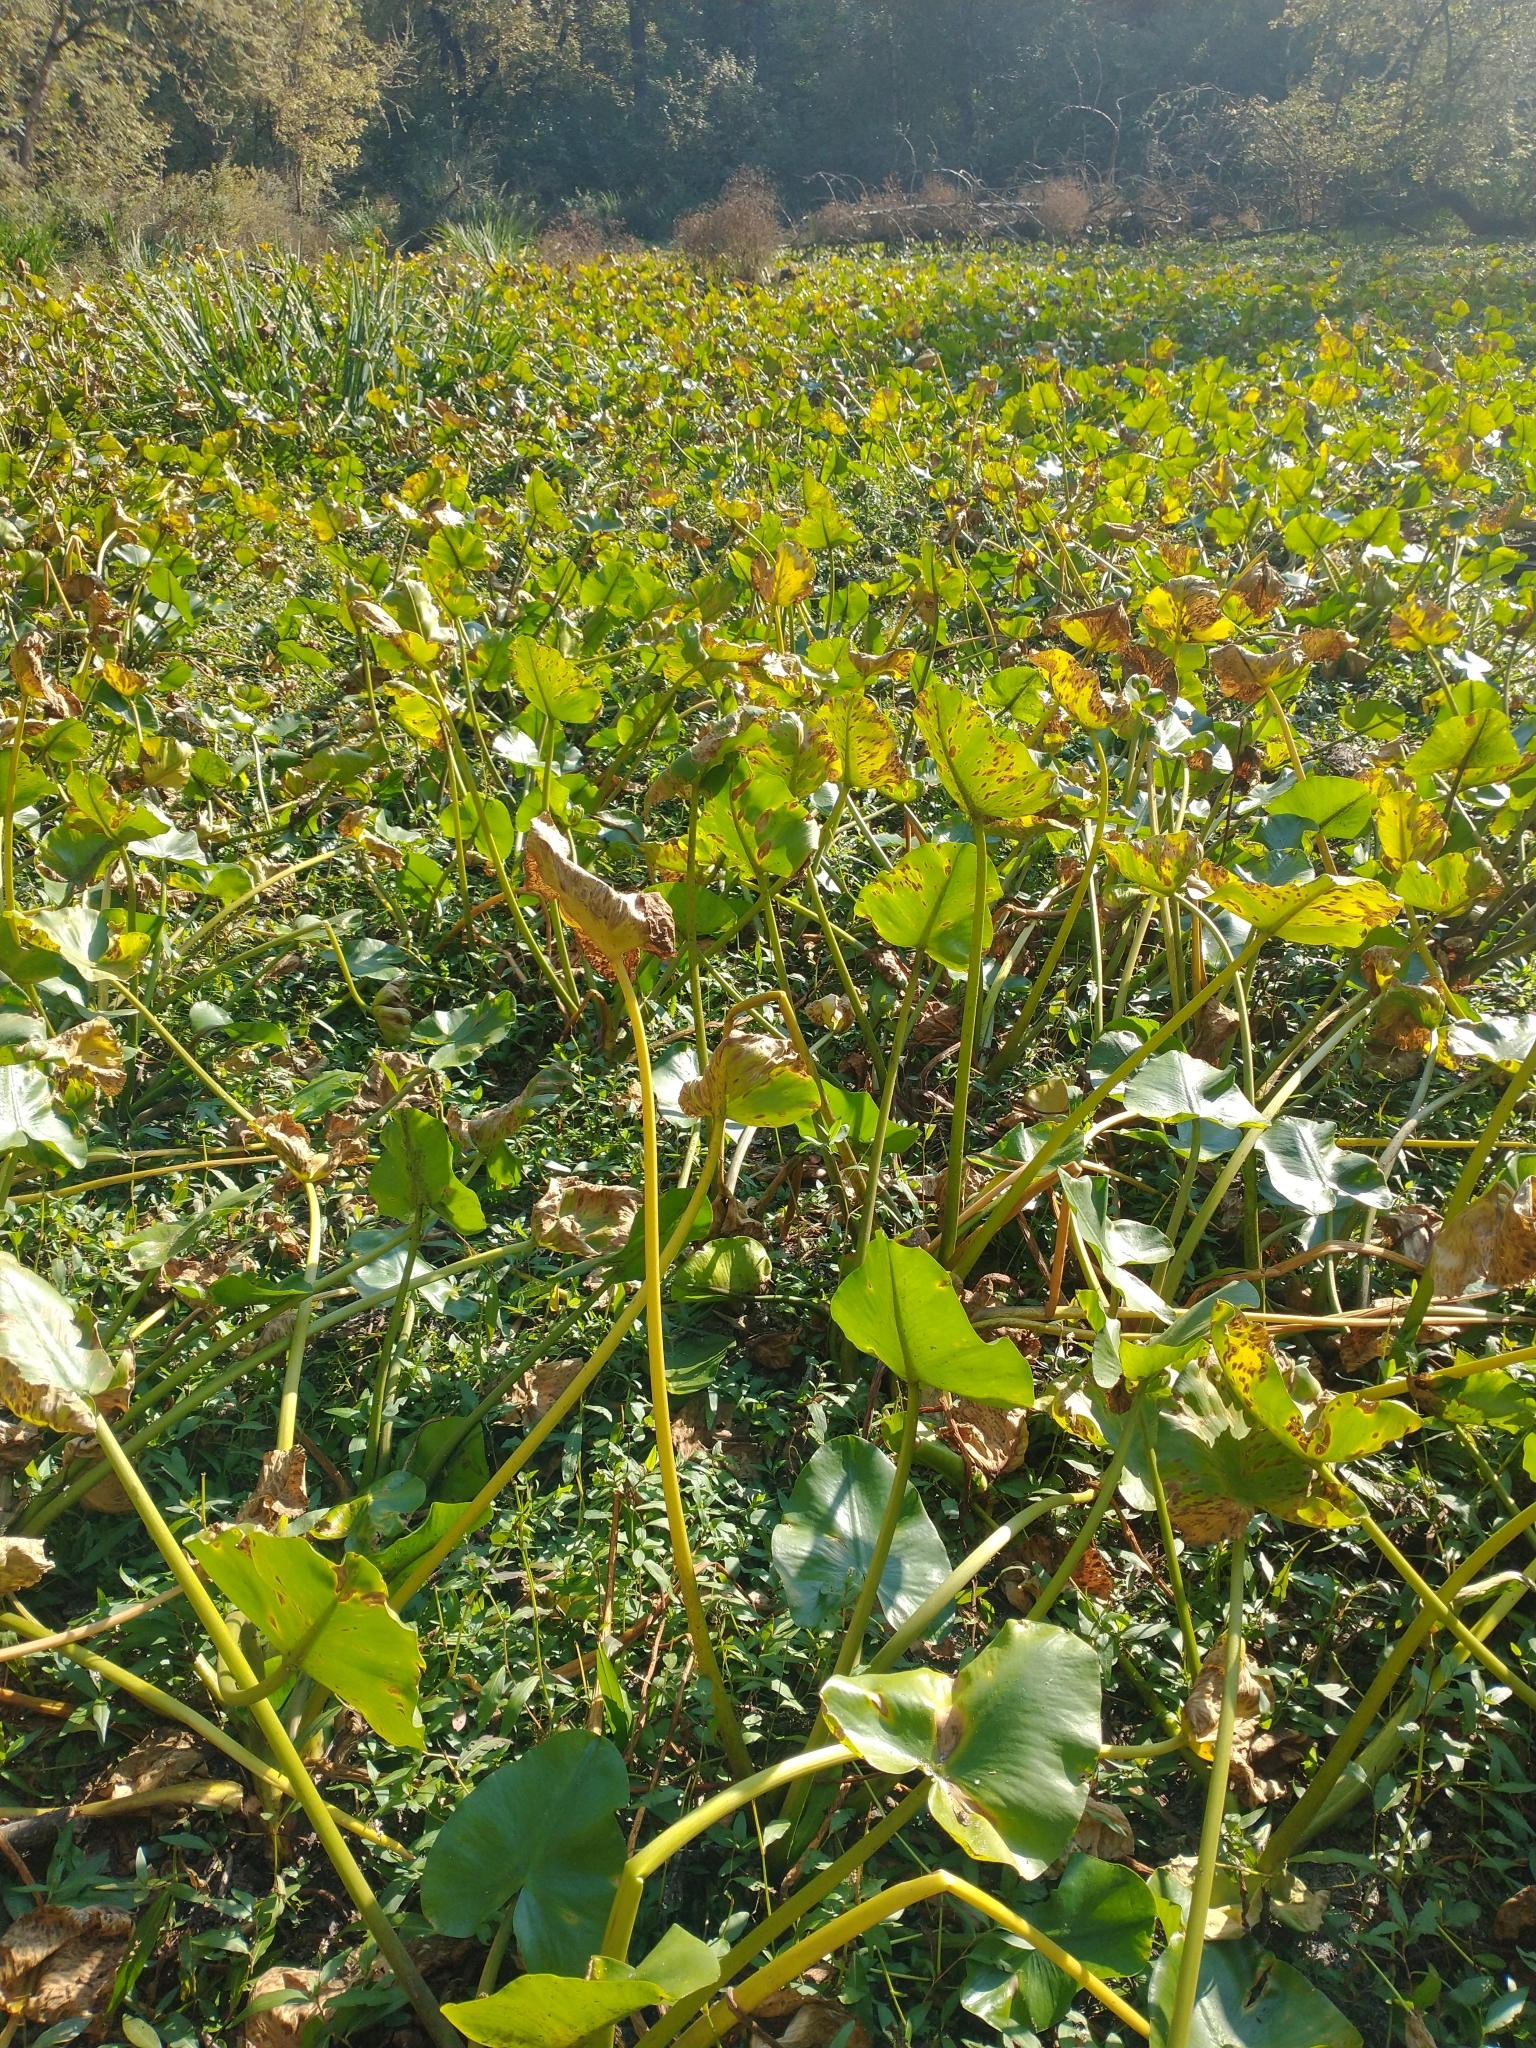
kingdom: Plantae
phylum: Tracheophyta
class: Magnoliopsida
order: Nymphaeales
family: Nymphaeaceae
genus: Nuphar
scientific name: Nuphar polysepala
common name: Rocky mountain cow-lily
